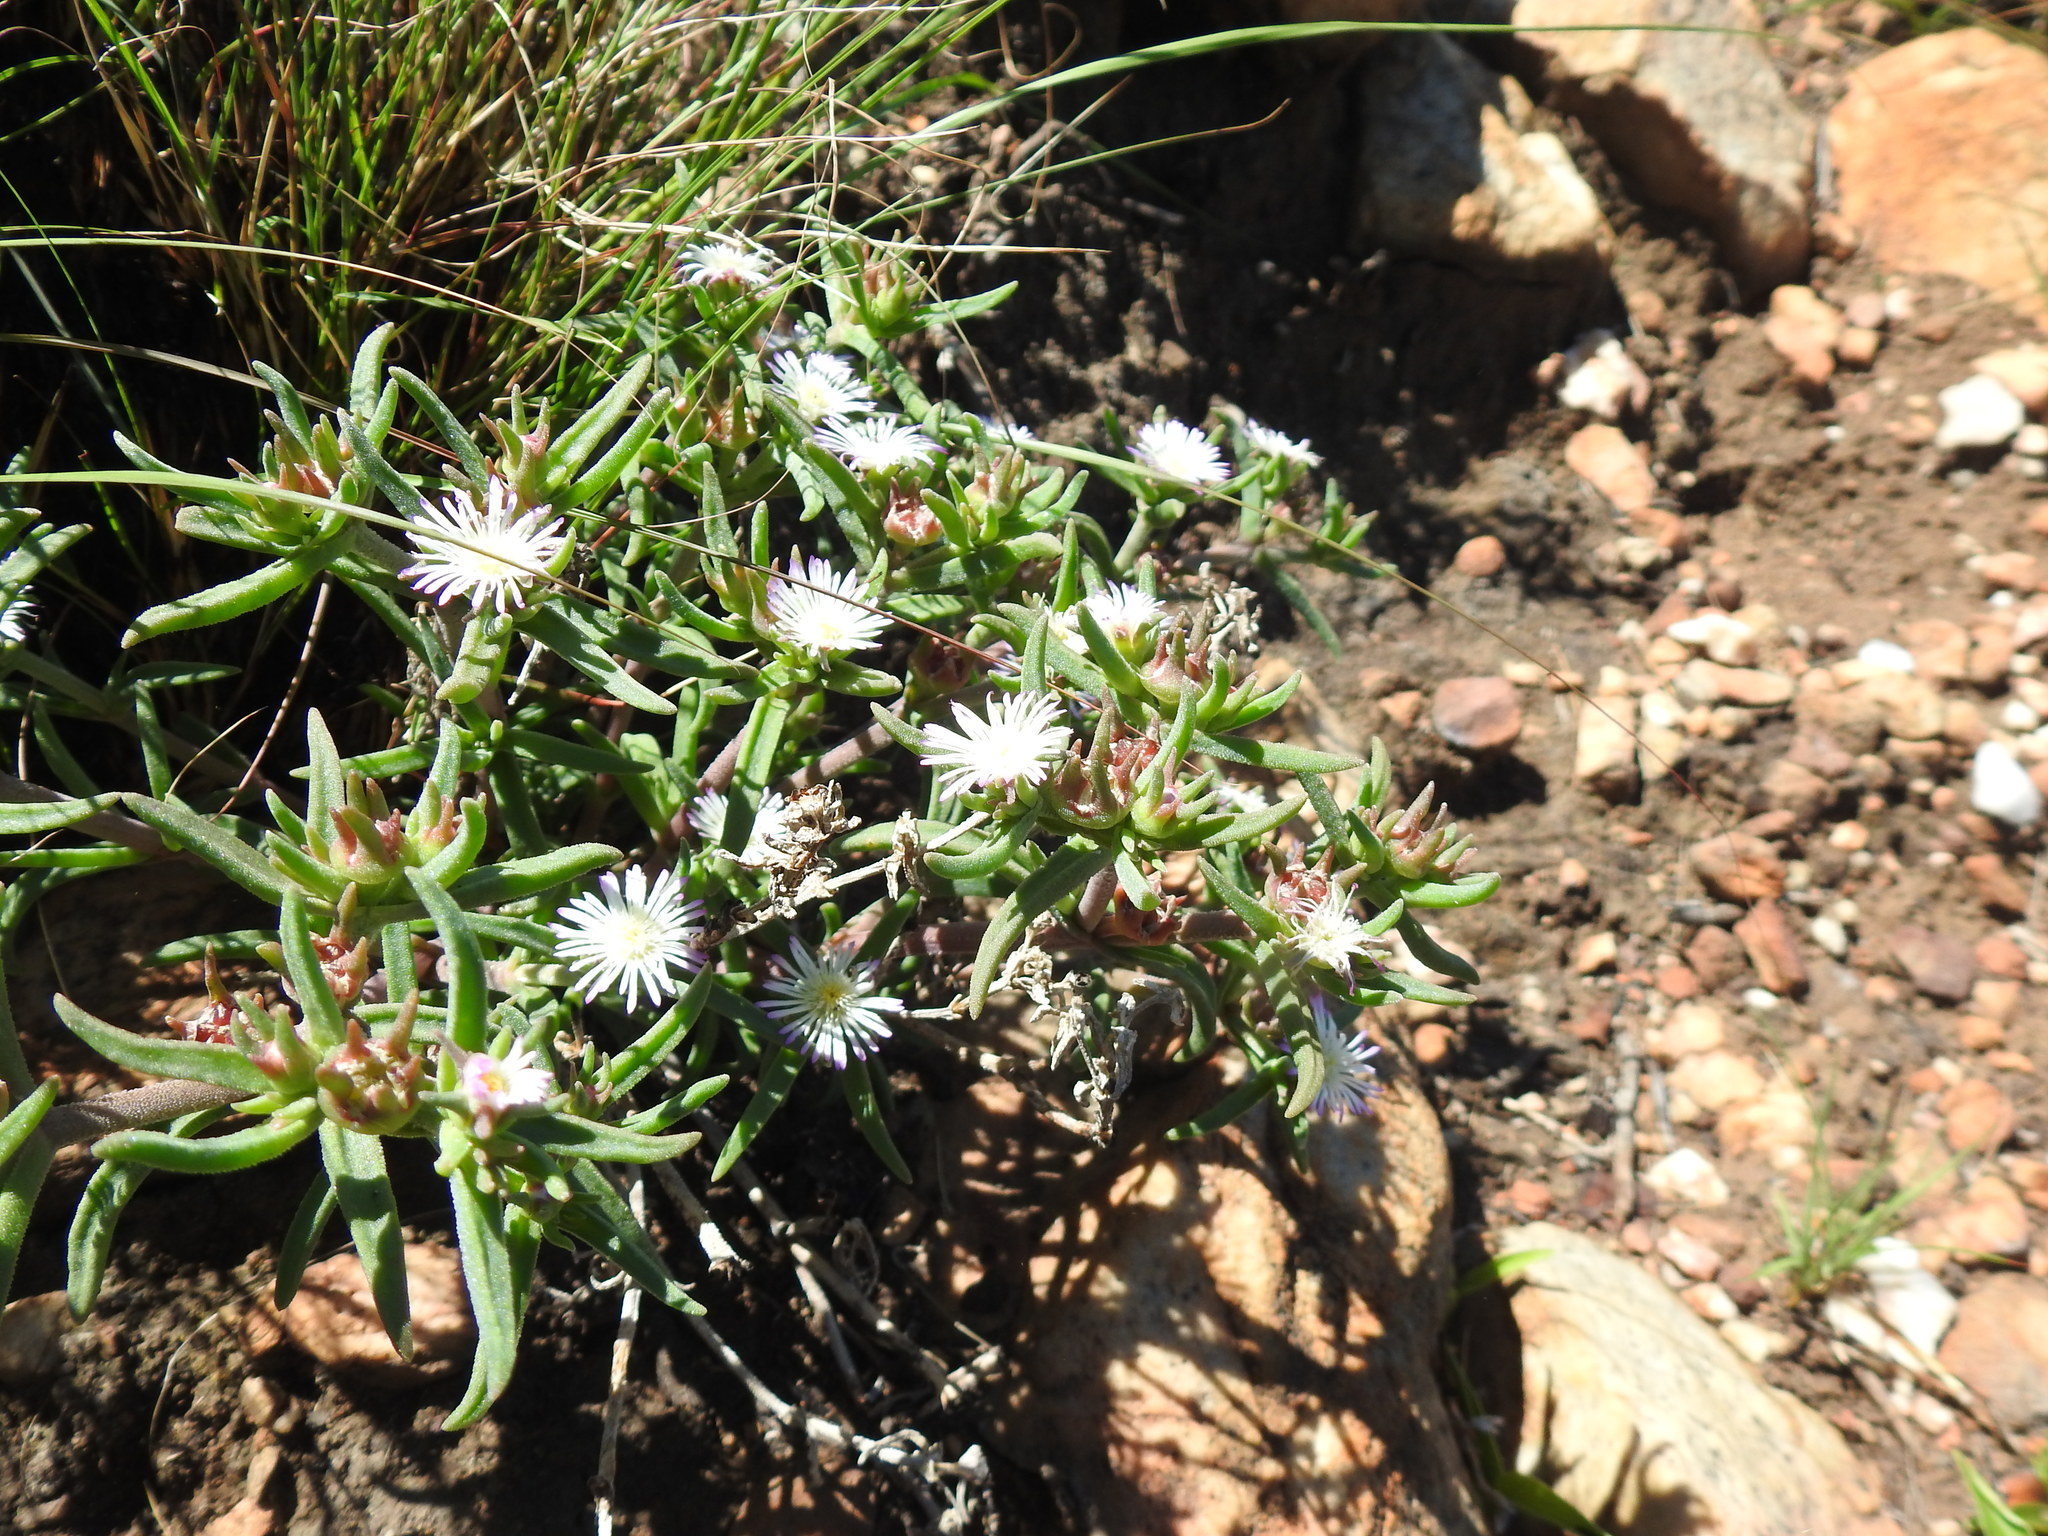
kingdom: Plantae
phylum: Tracheophyta
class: Magnoliopsida
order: Caryophyllales
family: Aizoaceae
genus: Delosperma
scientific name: Delosperma herbeum
